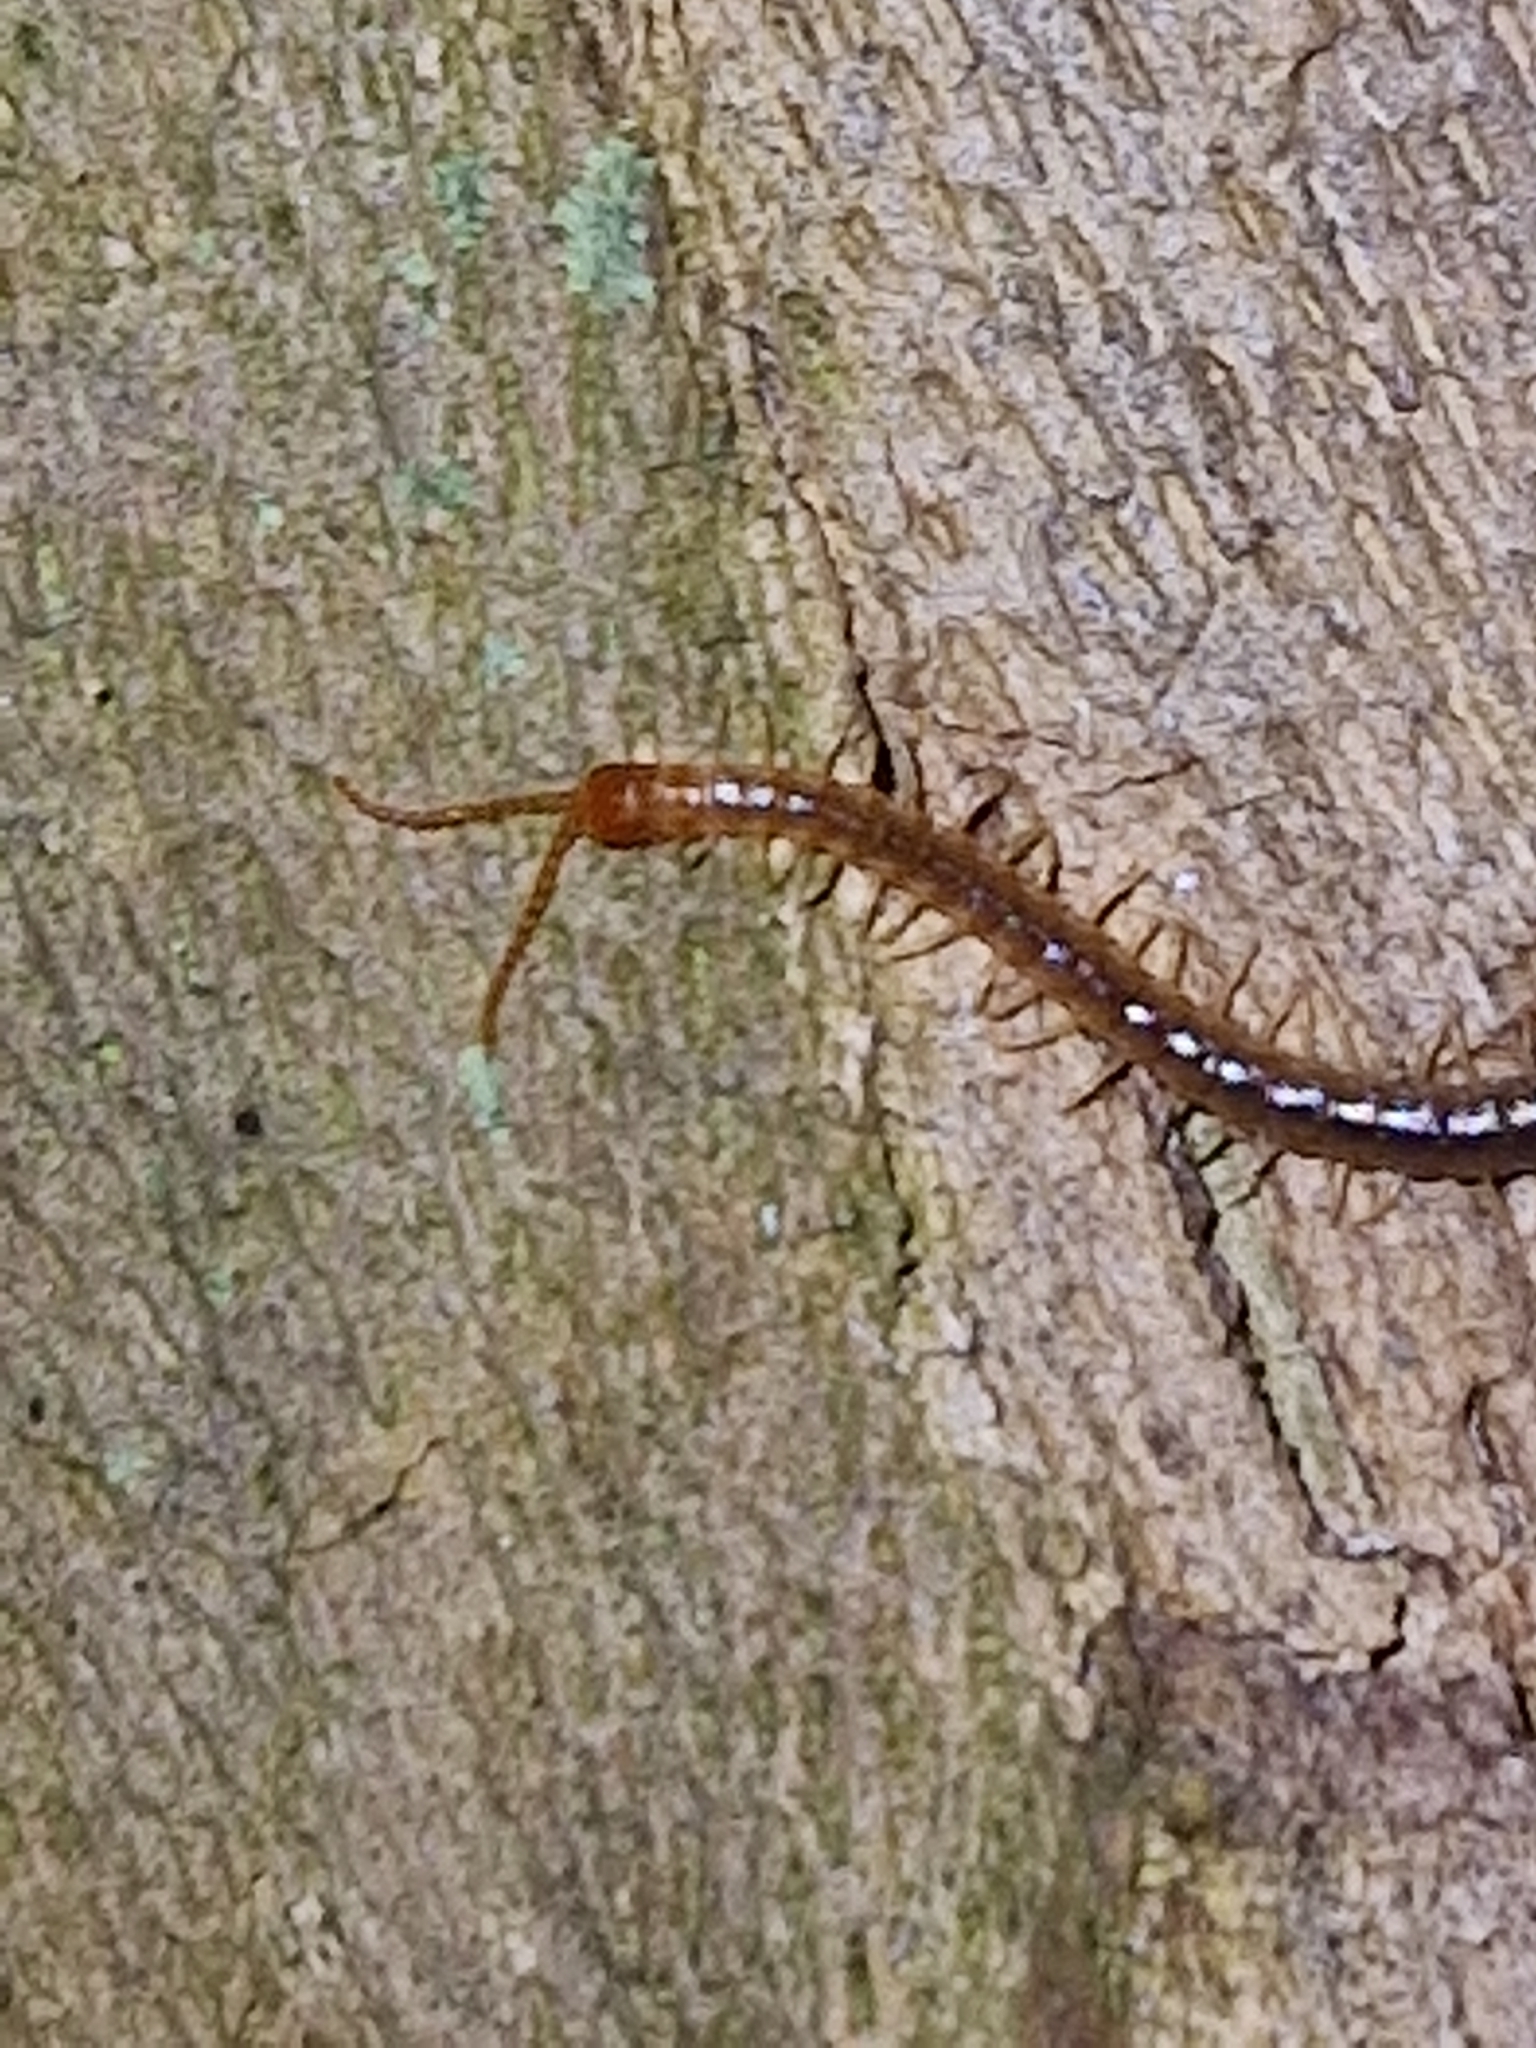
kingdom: Animalia
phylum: Arthropoda
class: Chilopoda
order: Geophilomorpha
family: Geophilidae
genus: Geophilus
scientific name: Geophilus carpophagus
